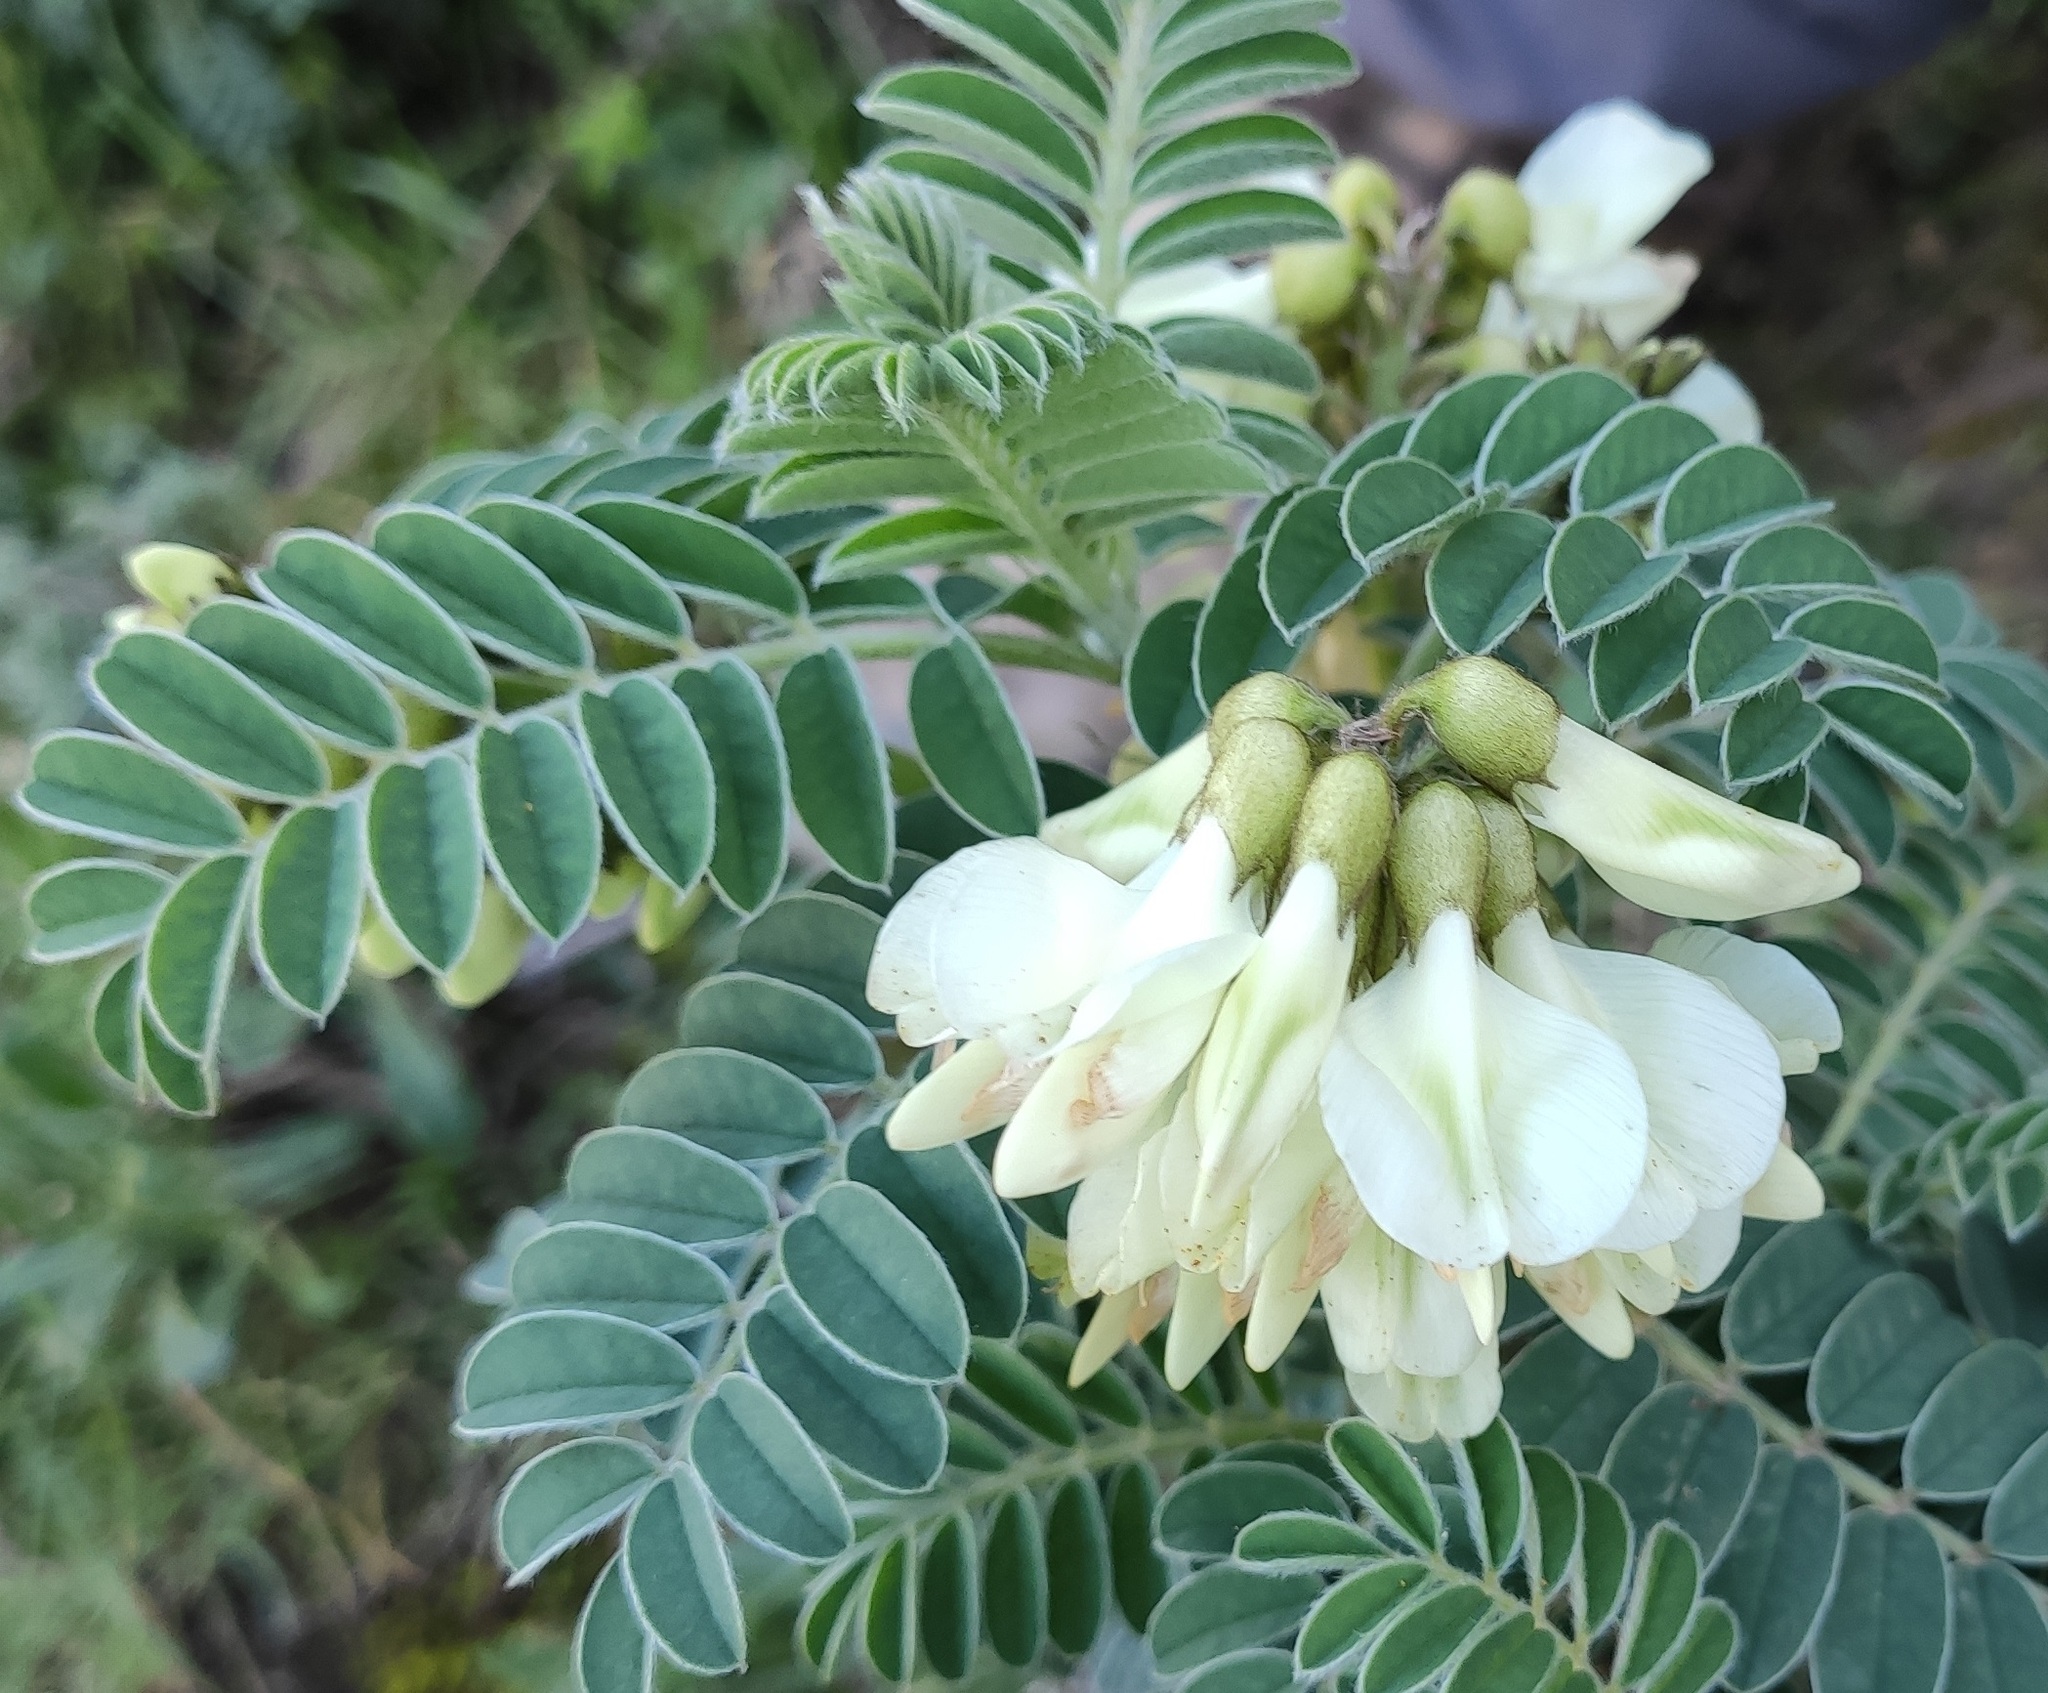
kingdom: Plantae
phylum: Tracheophyta
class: Magnoliopsida
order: Fabales
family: Fabaceae
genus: Erophaca
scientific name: Erophaca baetica
